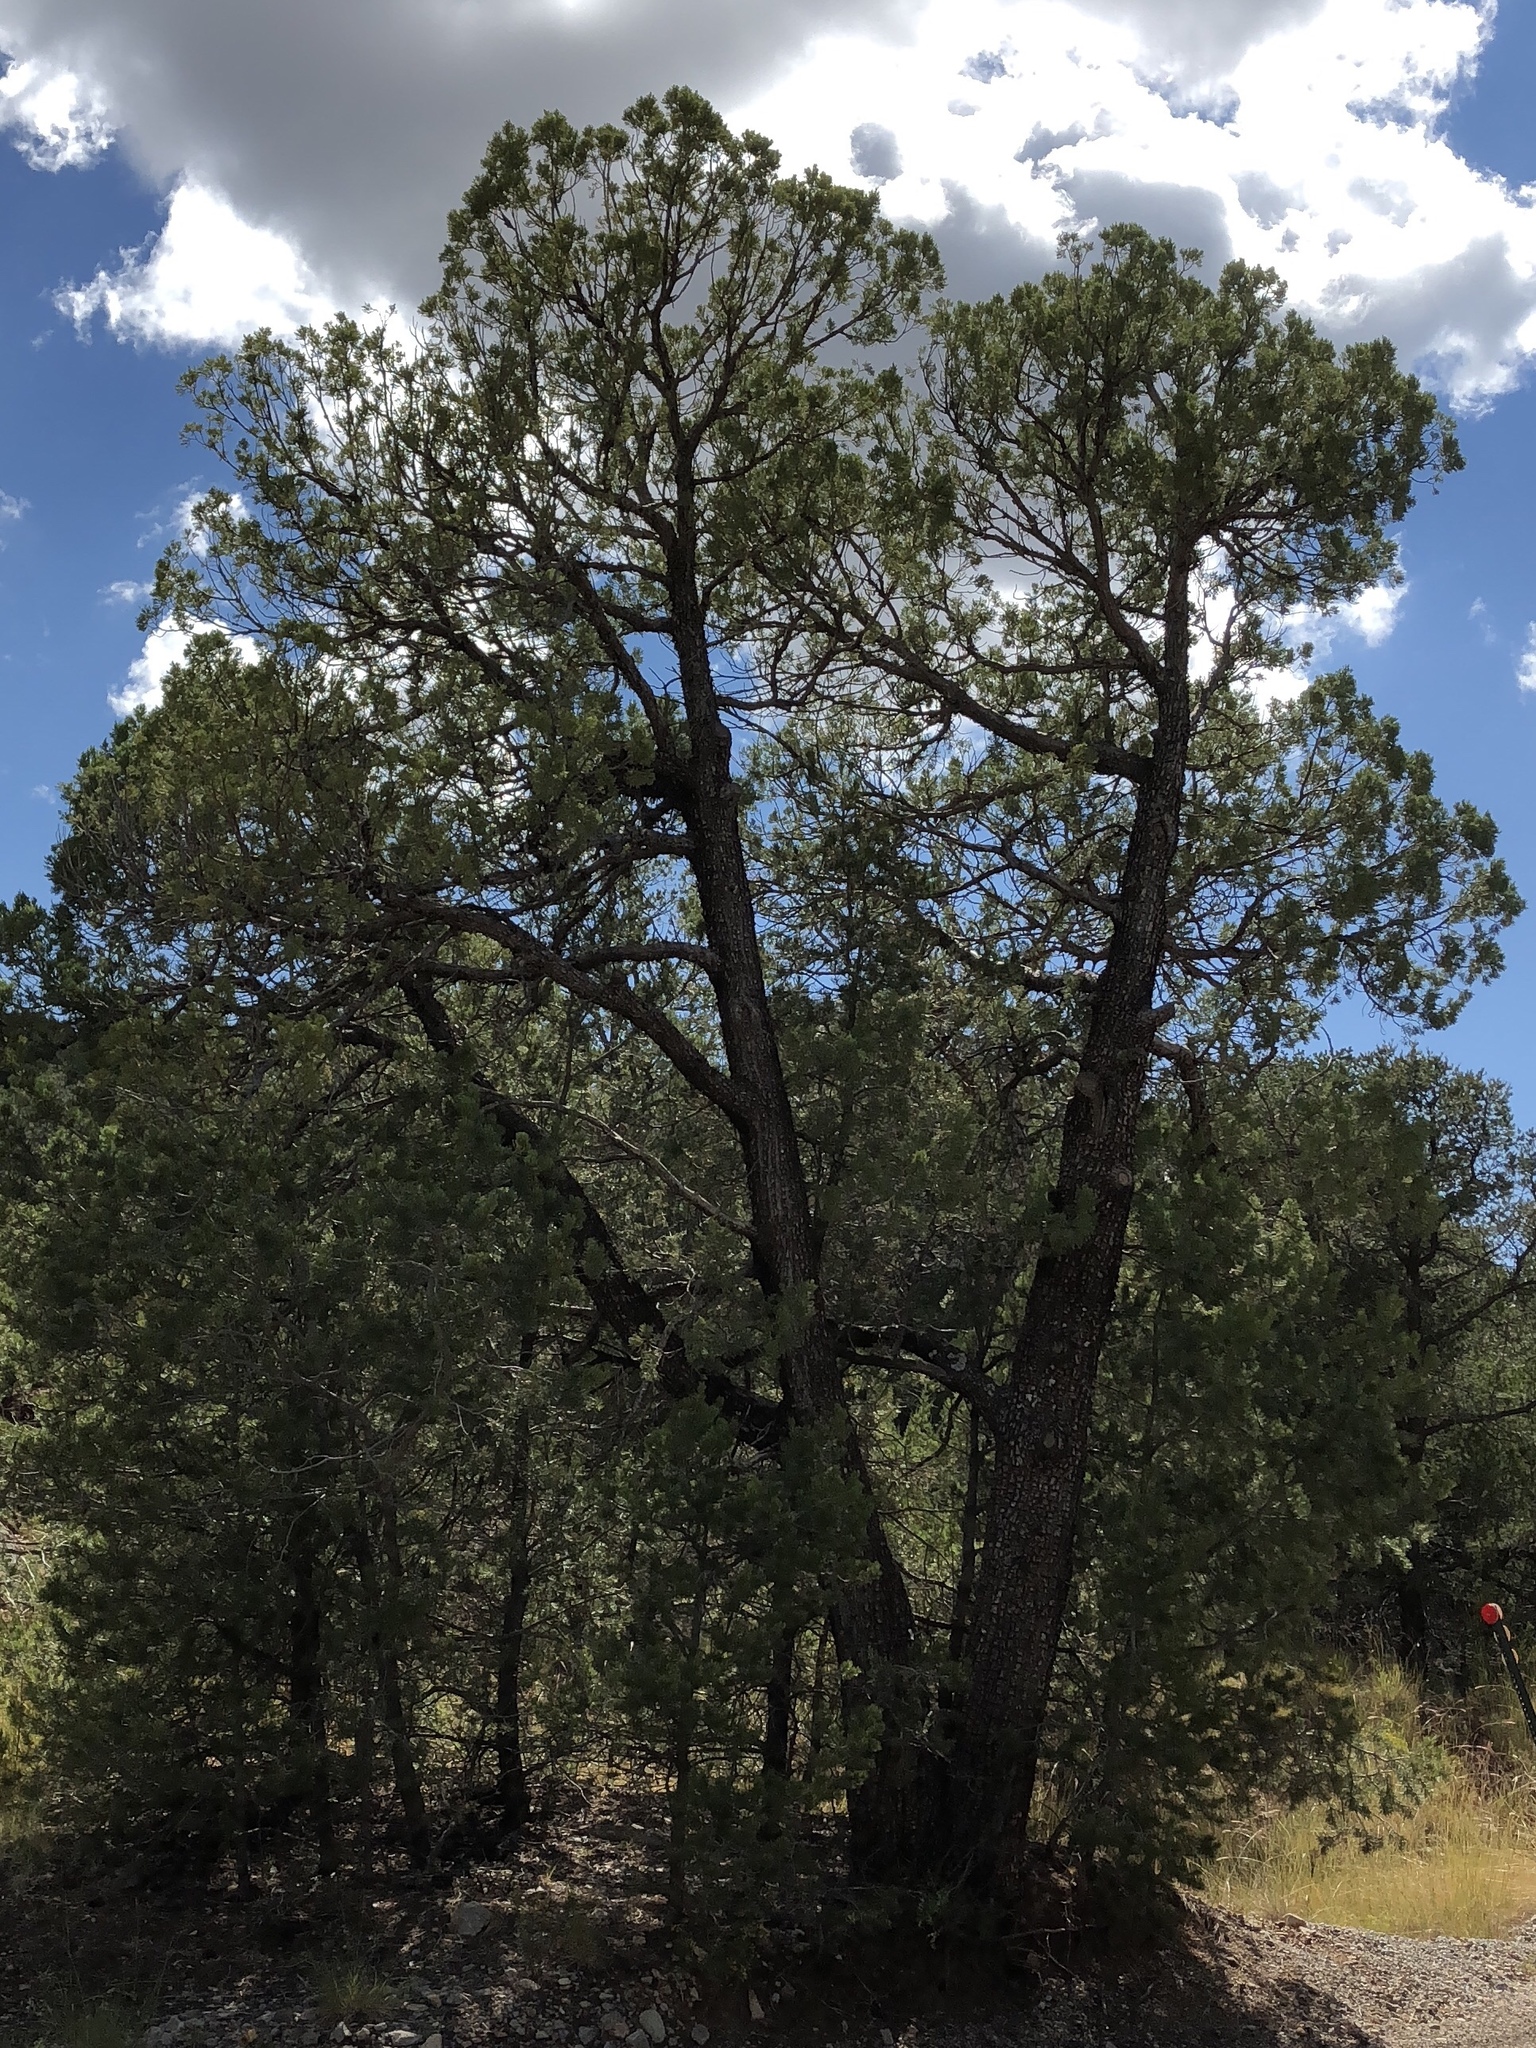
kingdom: Plantae
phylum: Tracheophyta
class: Pinopsida
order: Pinales
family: Pinaceae
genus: Pinus
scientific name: Pinus edulis
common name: Colorado pinyon
